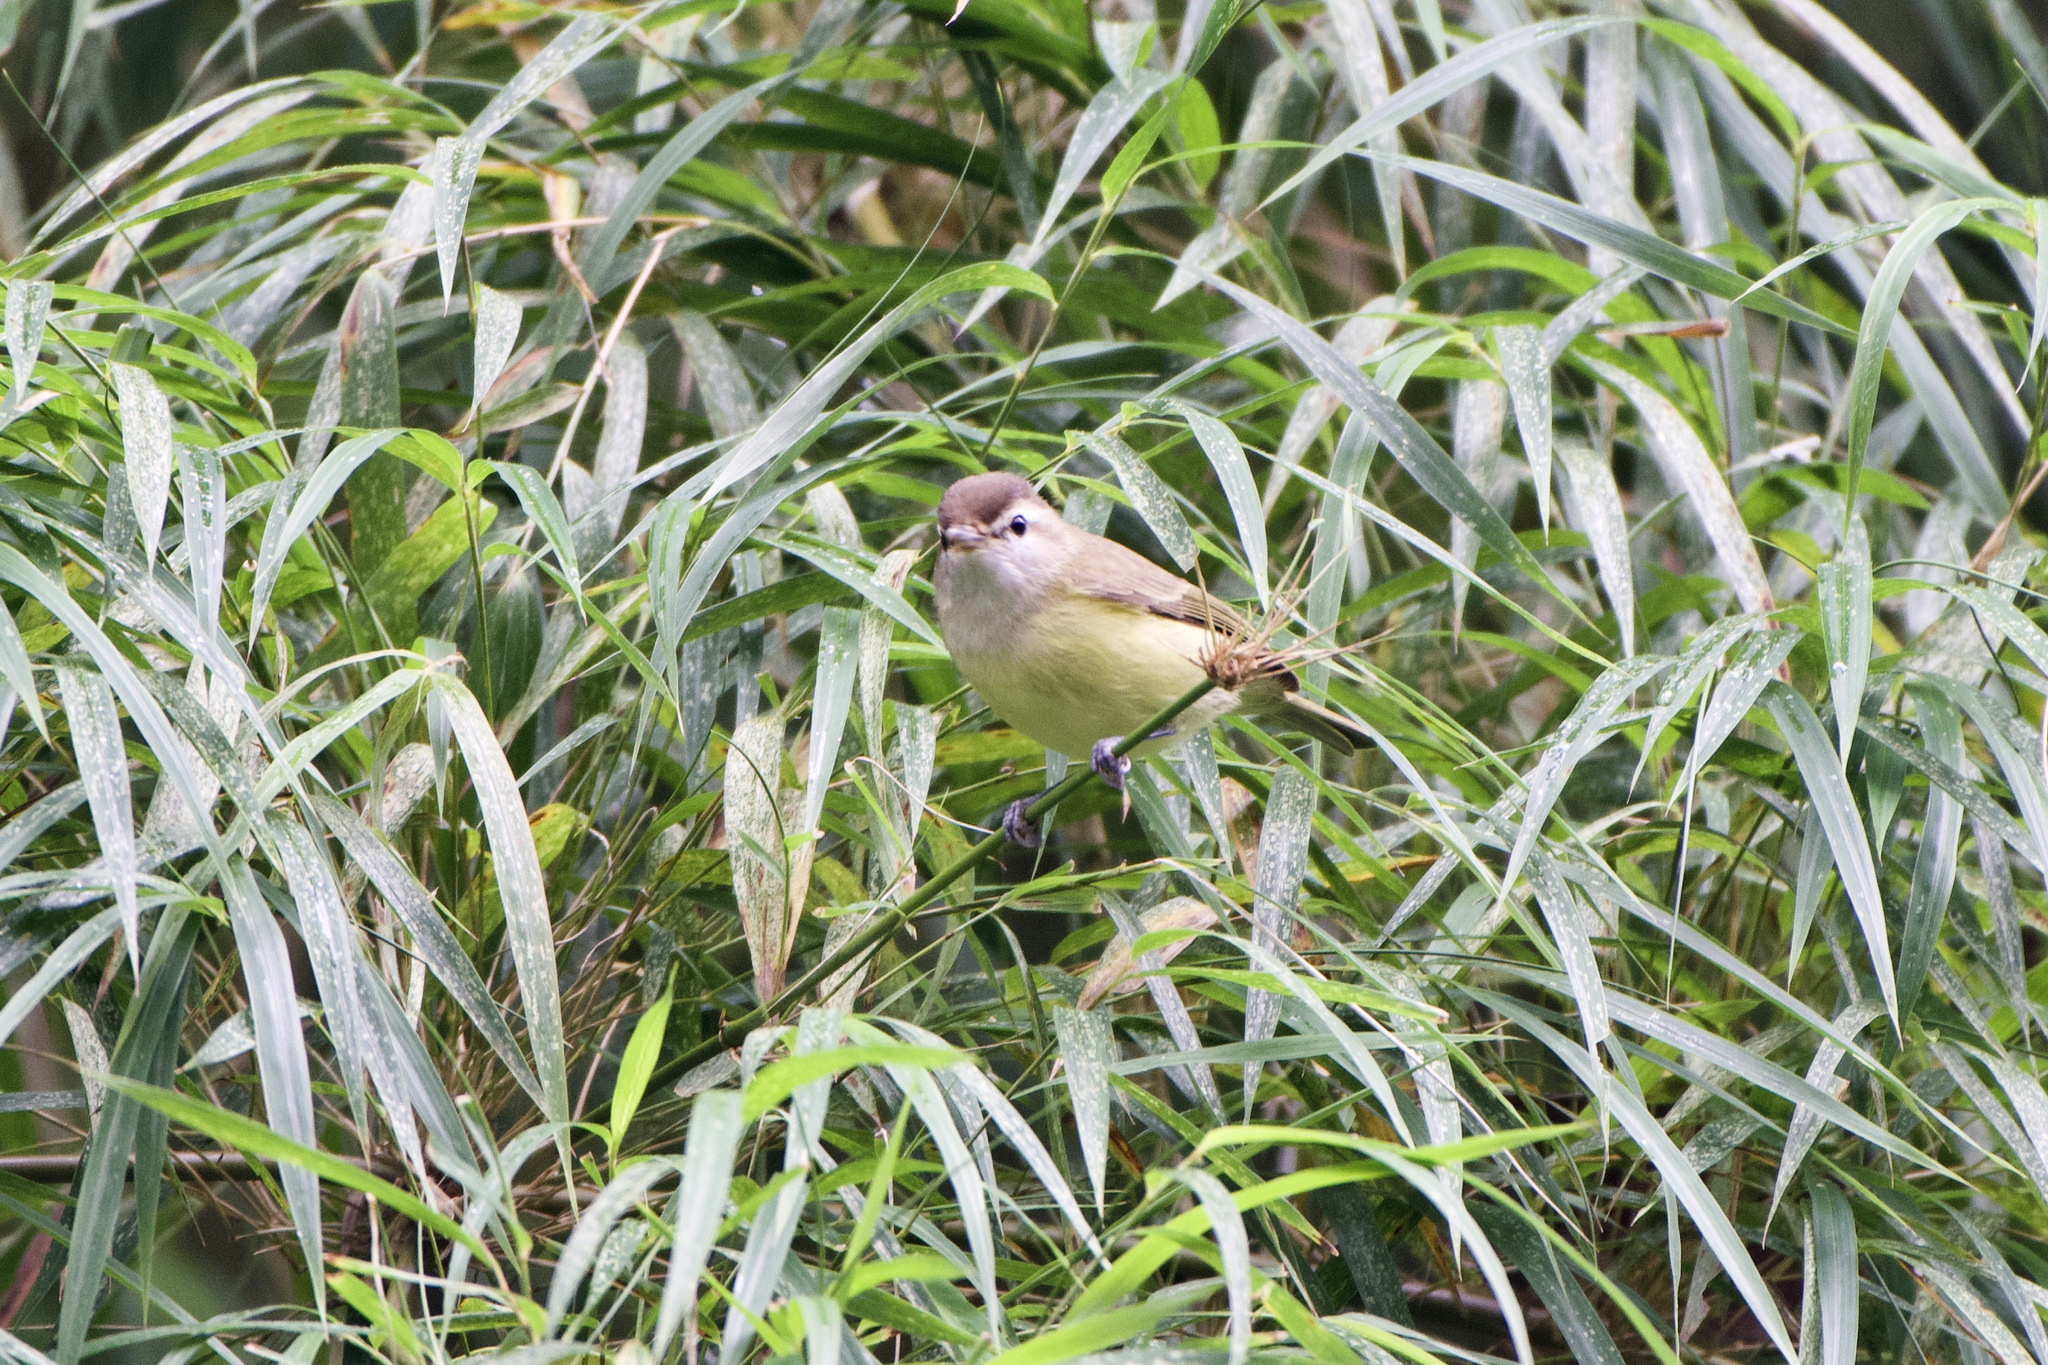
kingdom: Animalia
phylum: Chordata
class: Aves
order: Passeriformes
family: Vireonidae
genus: Vireo
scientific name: Vireo leucophrys
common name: Brown-capped vireo
